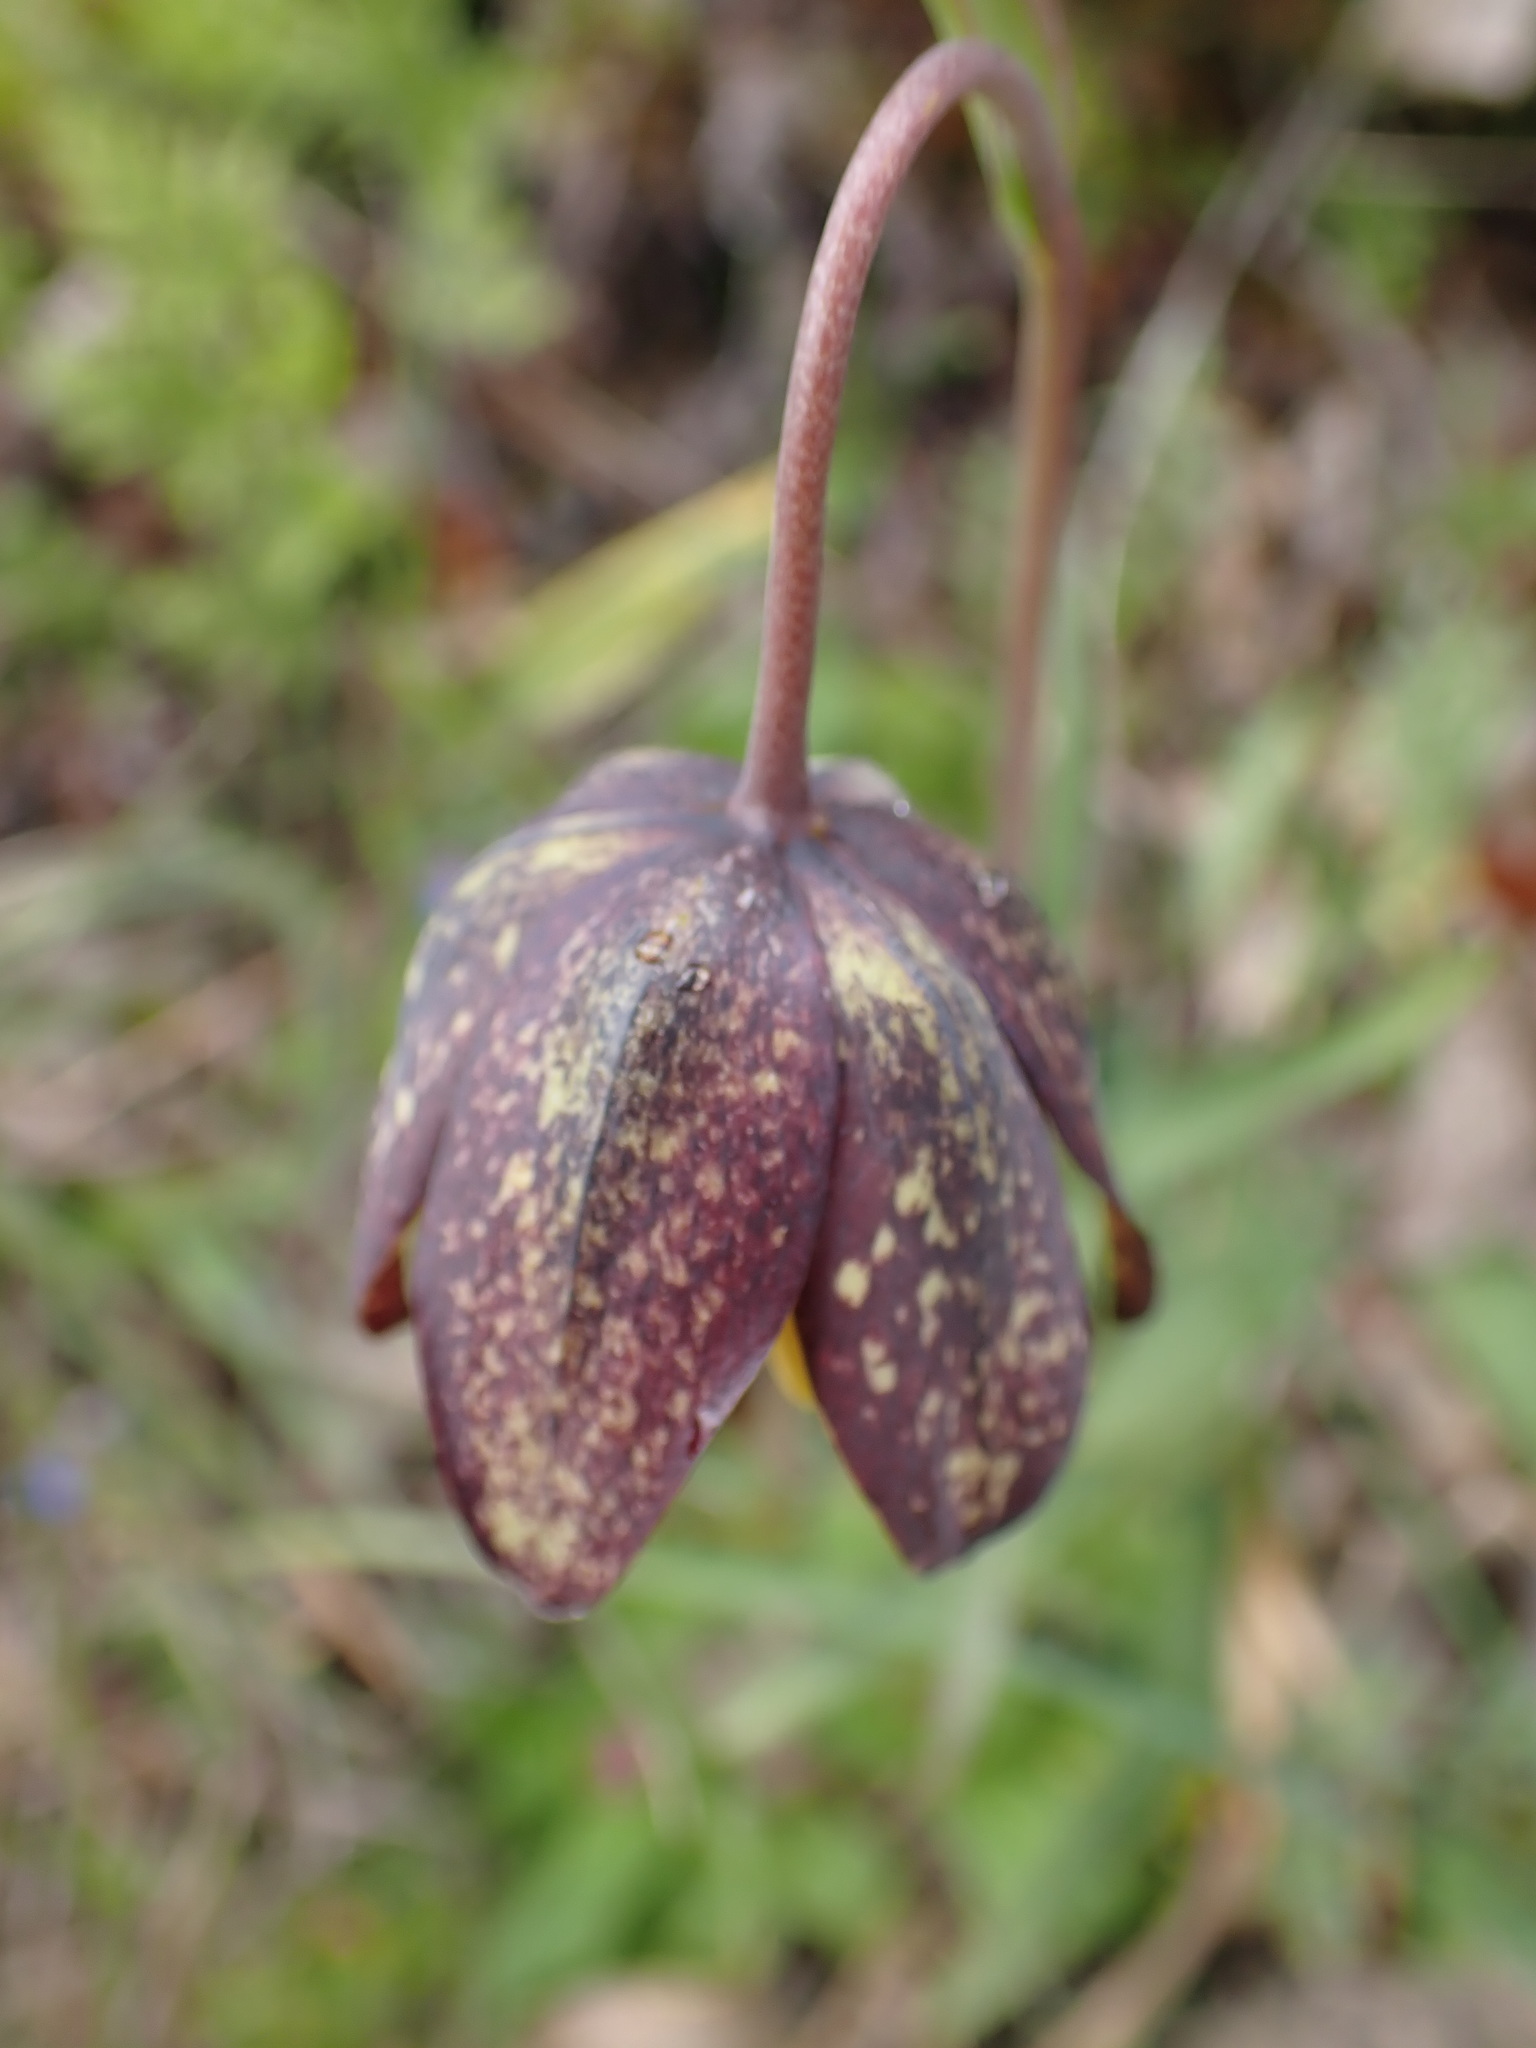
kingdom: Plantae
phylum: Tracheophyta
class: Liliopsida
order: Liliales
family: Liliaceae
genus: Fritillaria
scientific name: Fritillaria affinis
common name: Ojai fritillary
